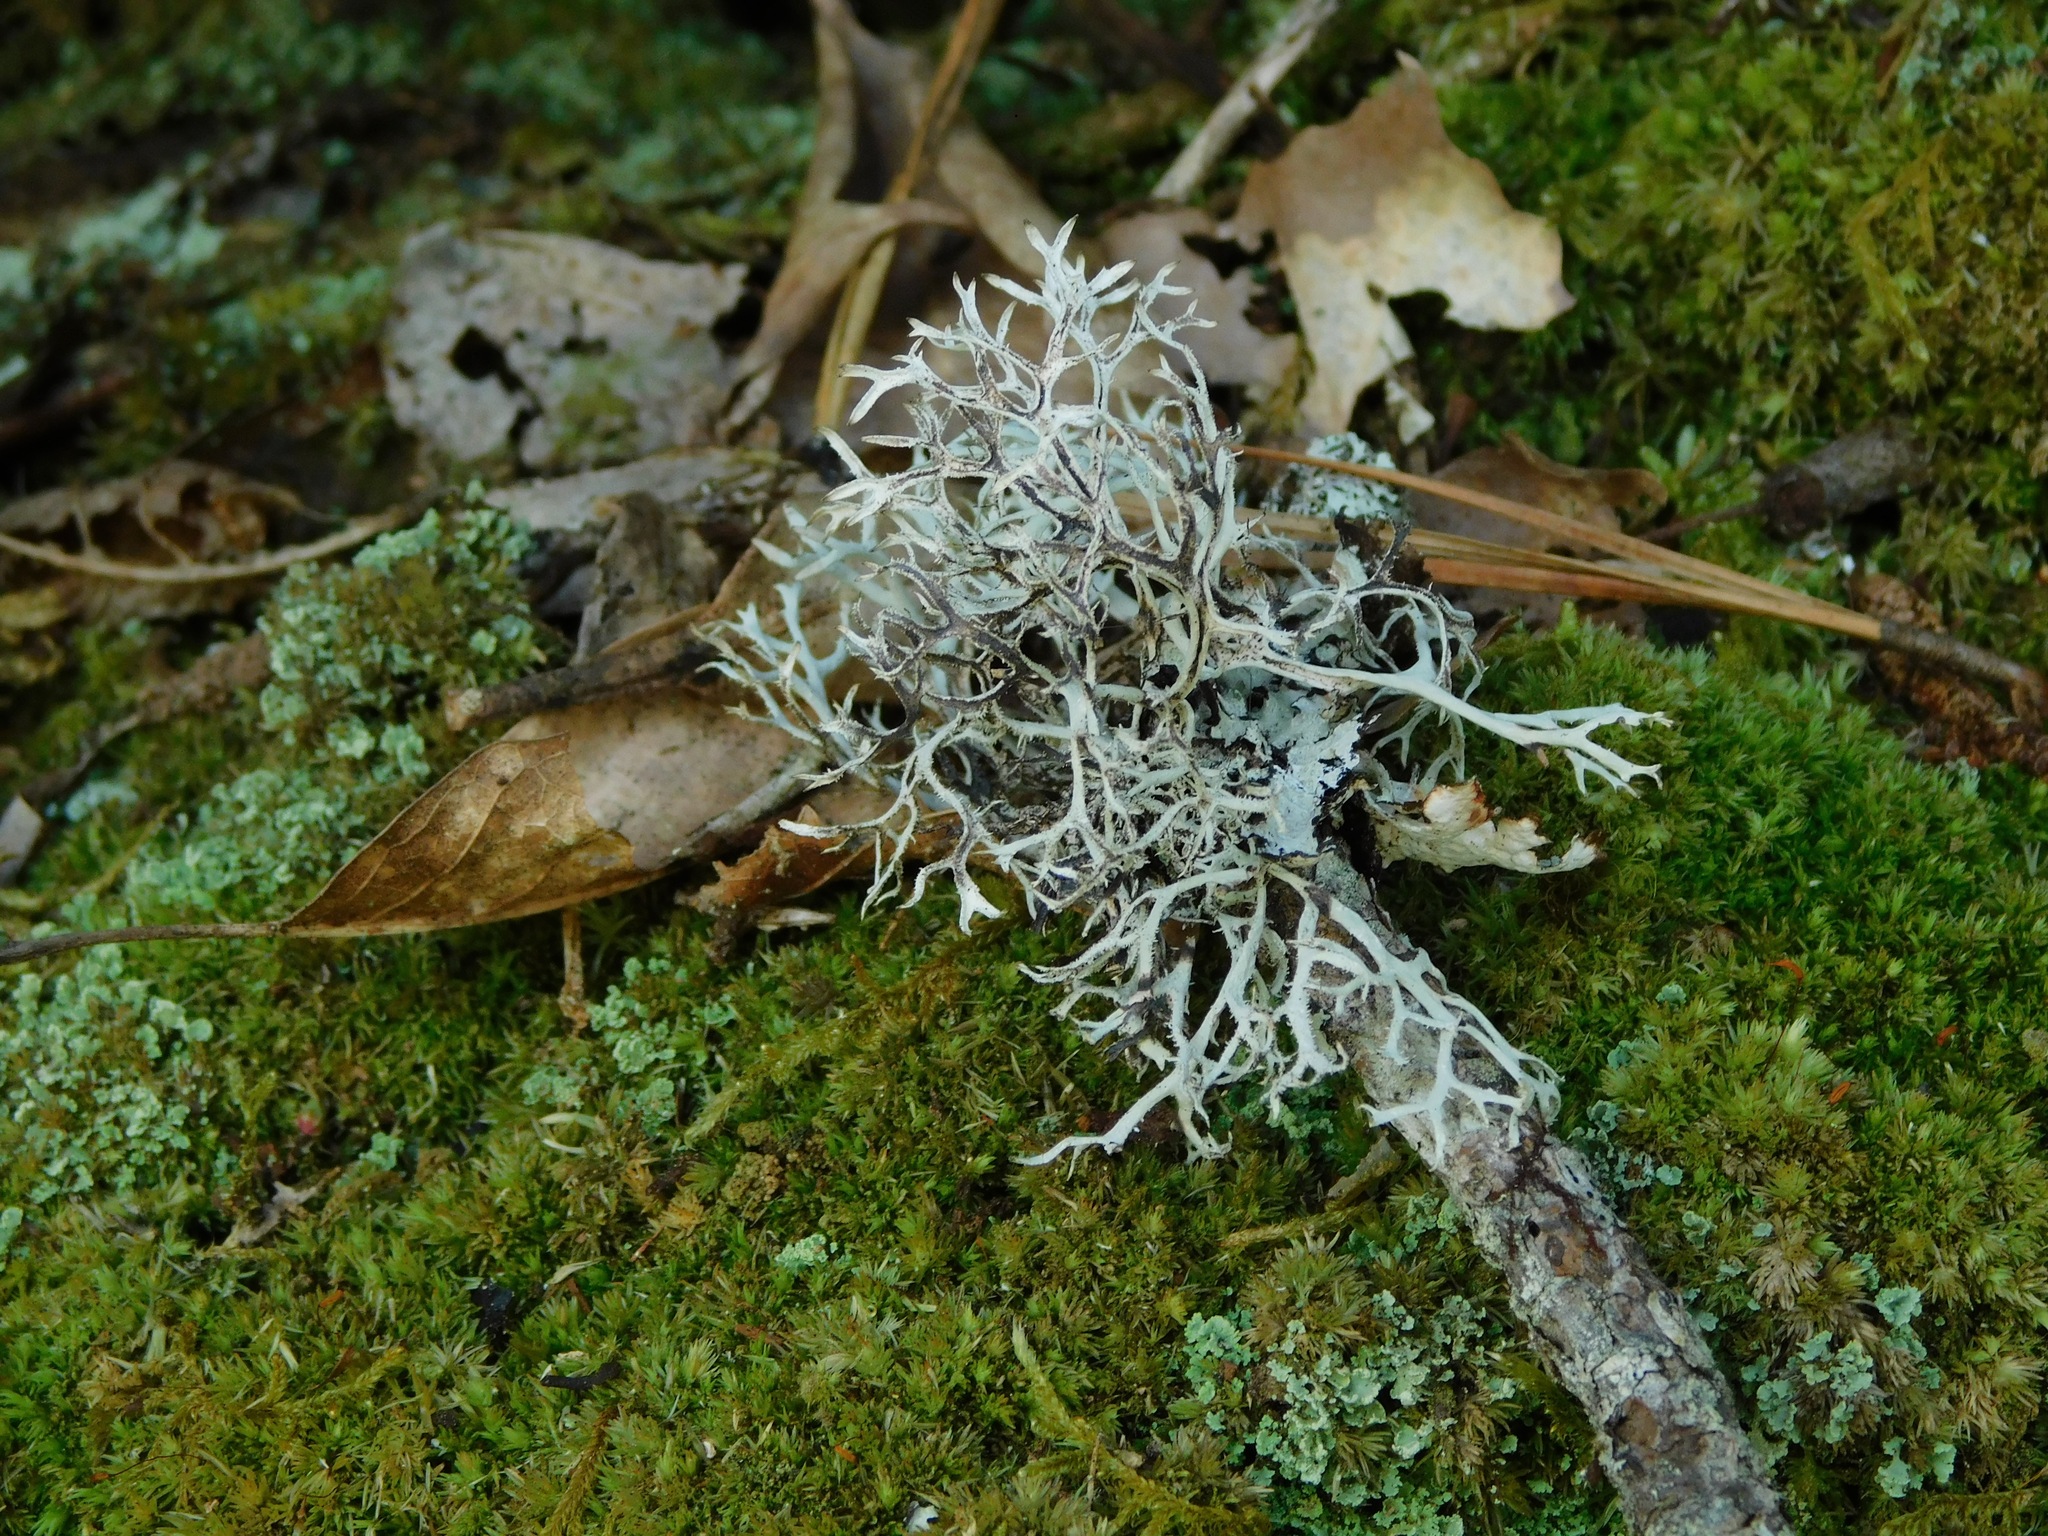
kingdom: Fungi
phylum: Ascomycota
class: Lecanoromycetes
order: Lecanorales
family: Parmeliaceae
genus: Pseudevernia
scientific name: Pseudevernia consocians
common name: Common antler lichen
